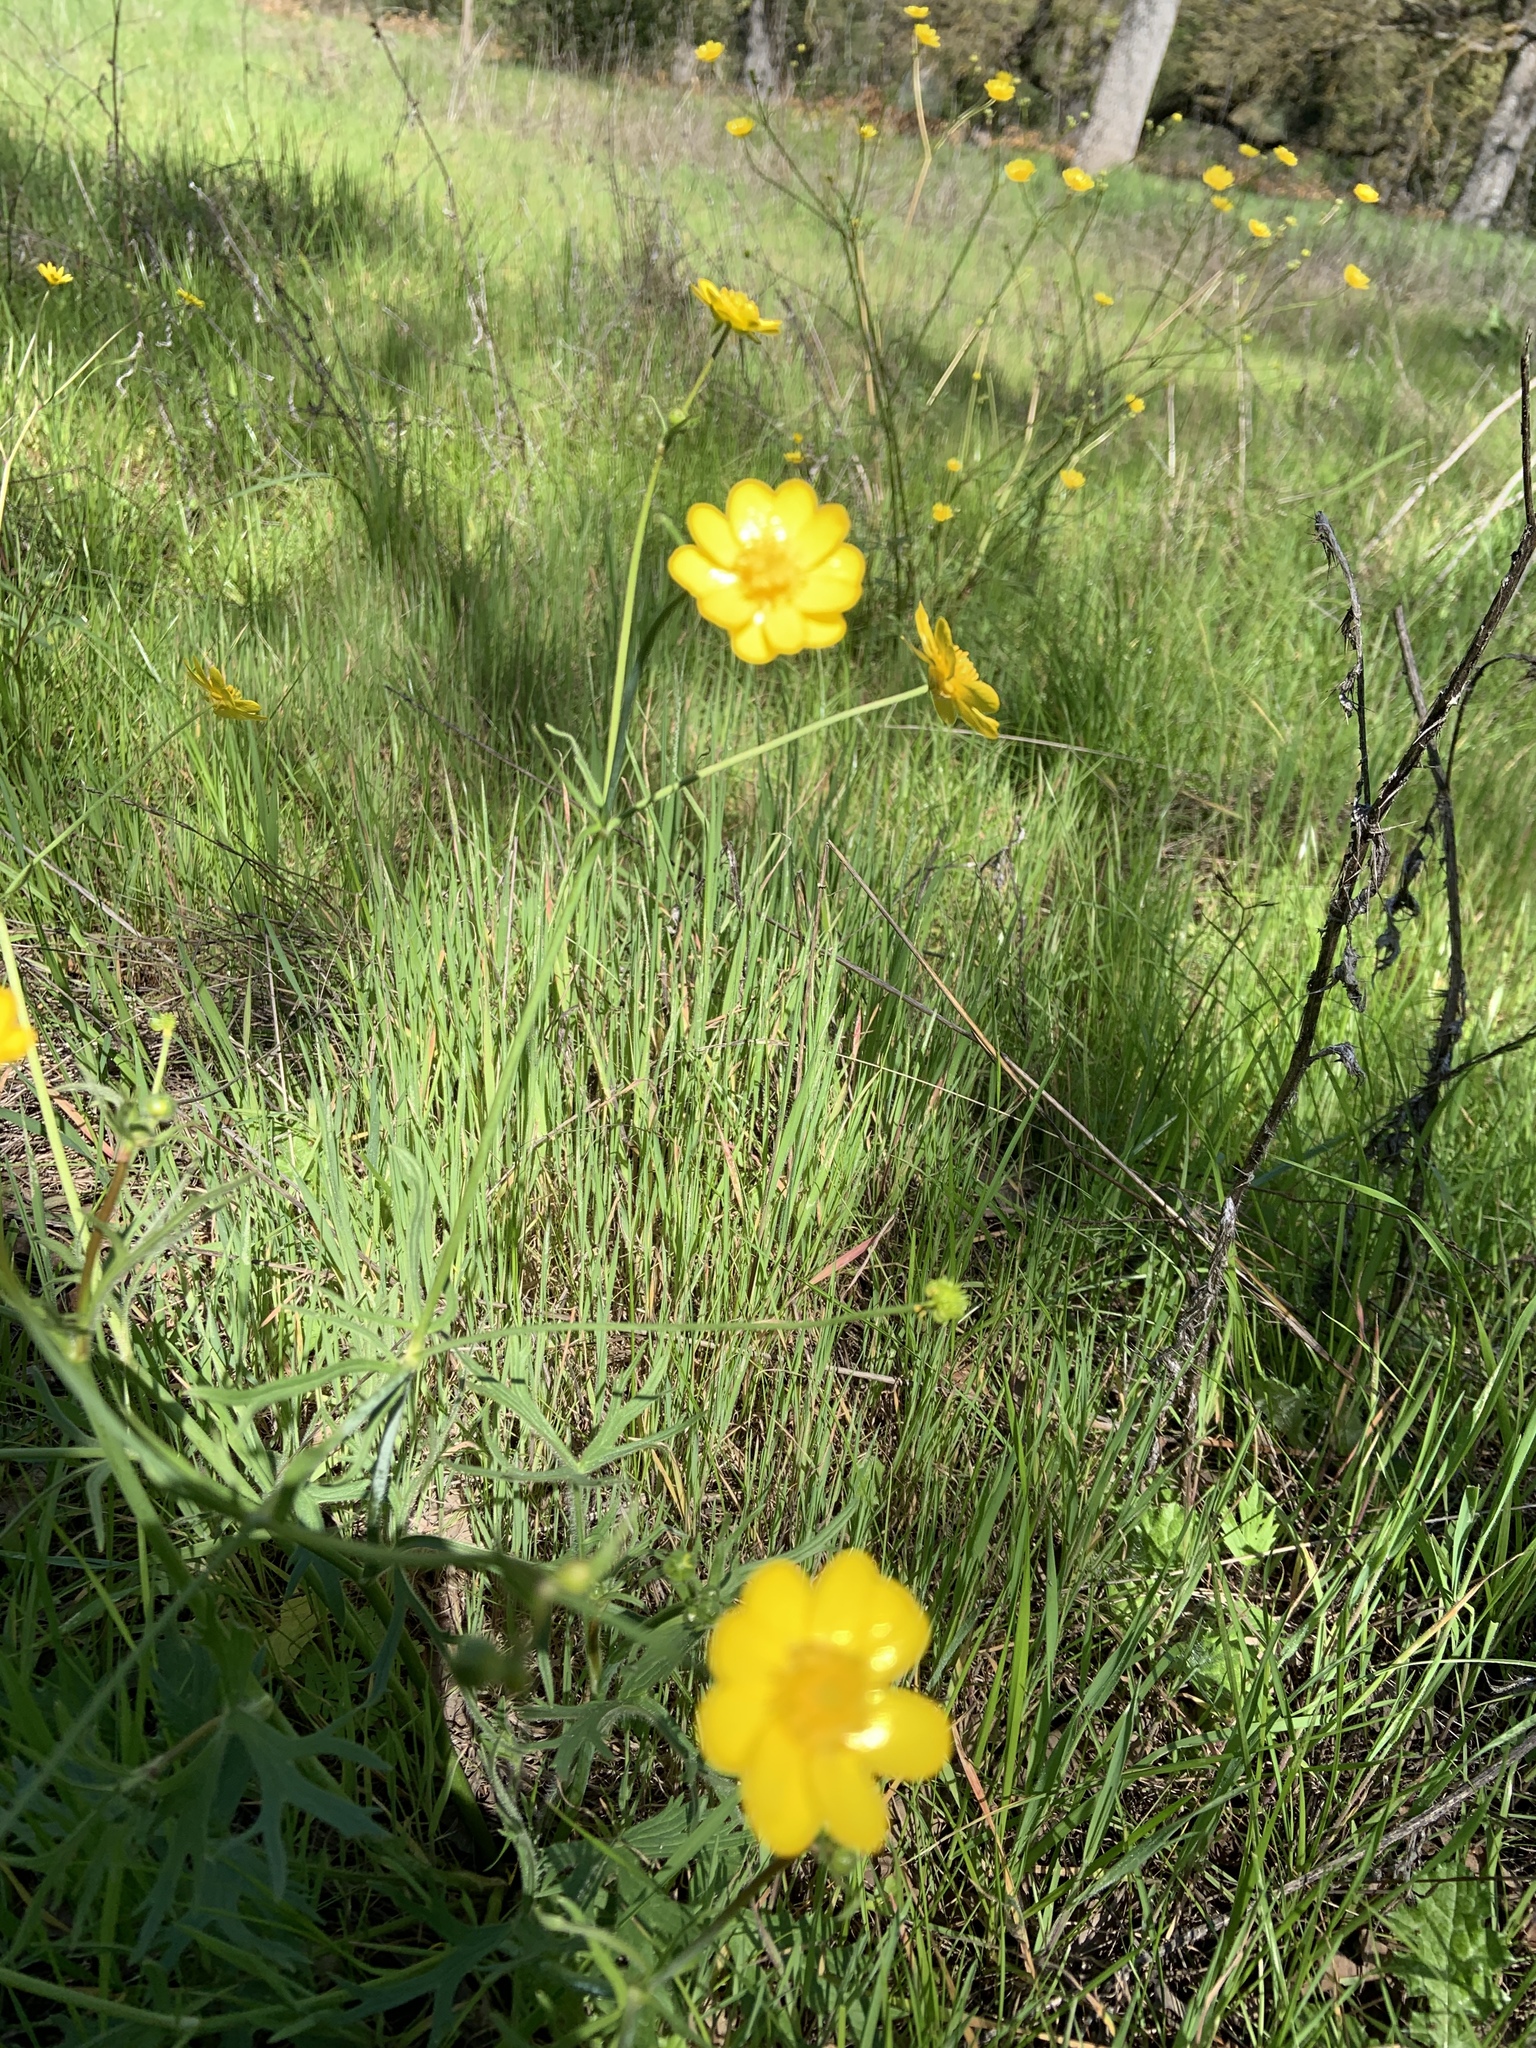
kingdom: Plantae
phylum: Tracheophyta
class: Magnoliopsida
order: Ranunculales
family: Ranunculaceae
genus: Ranunculus
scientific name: Ranunculus californicus
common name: California buttercup
